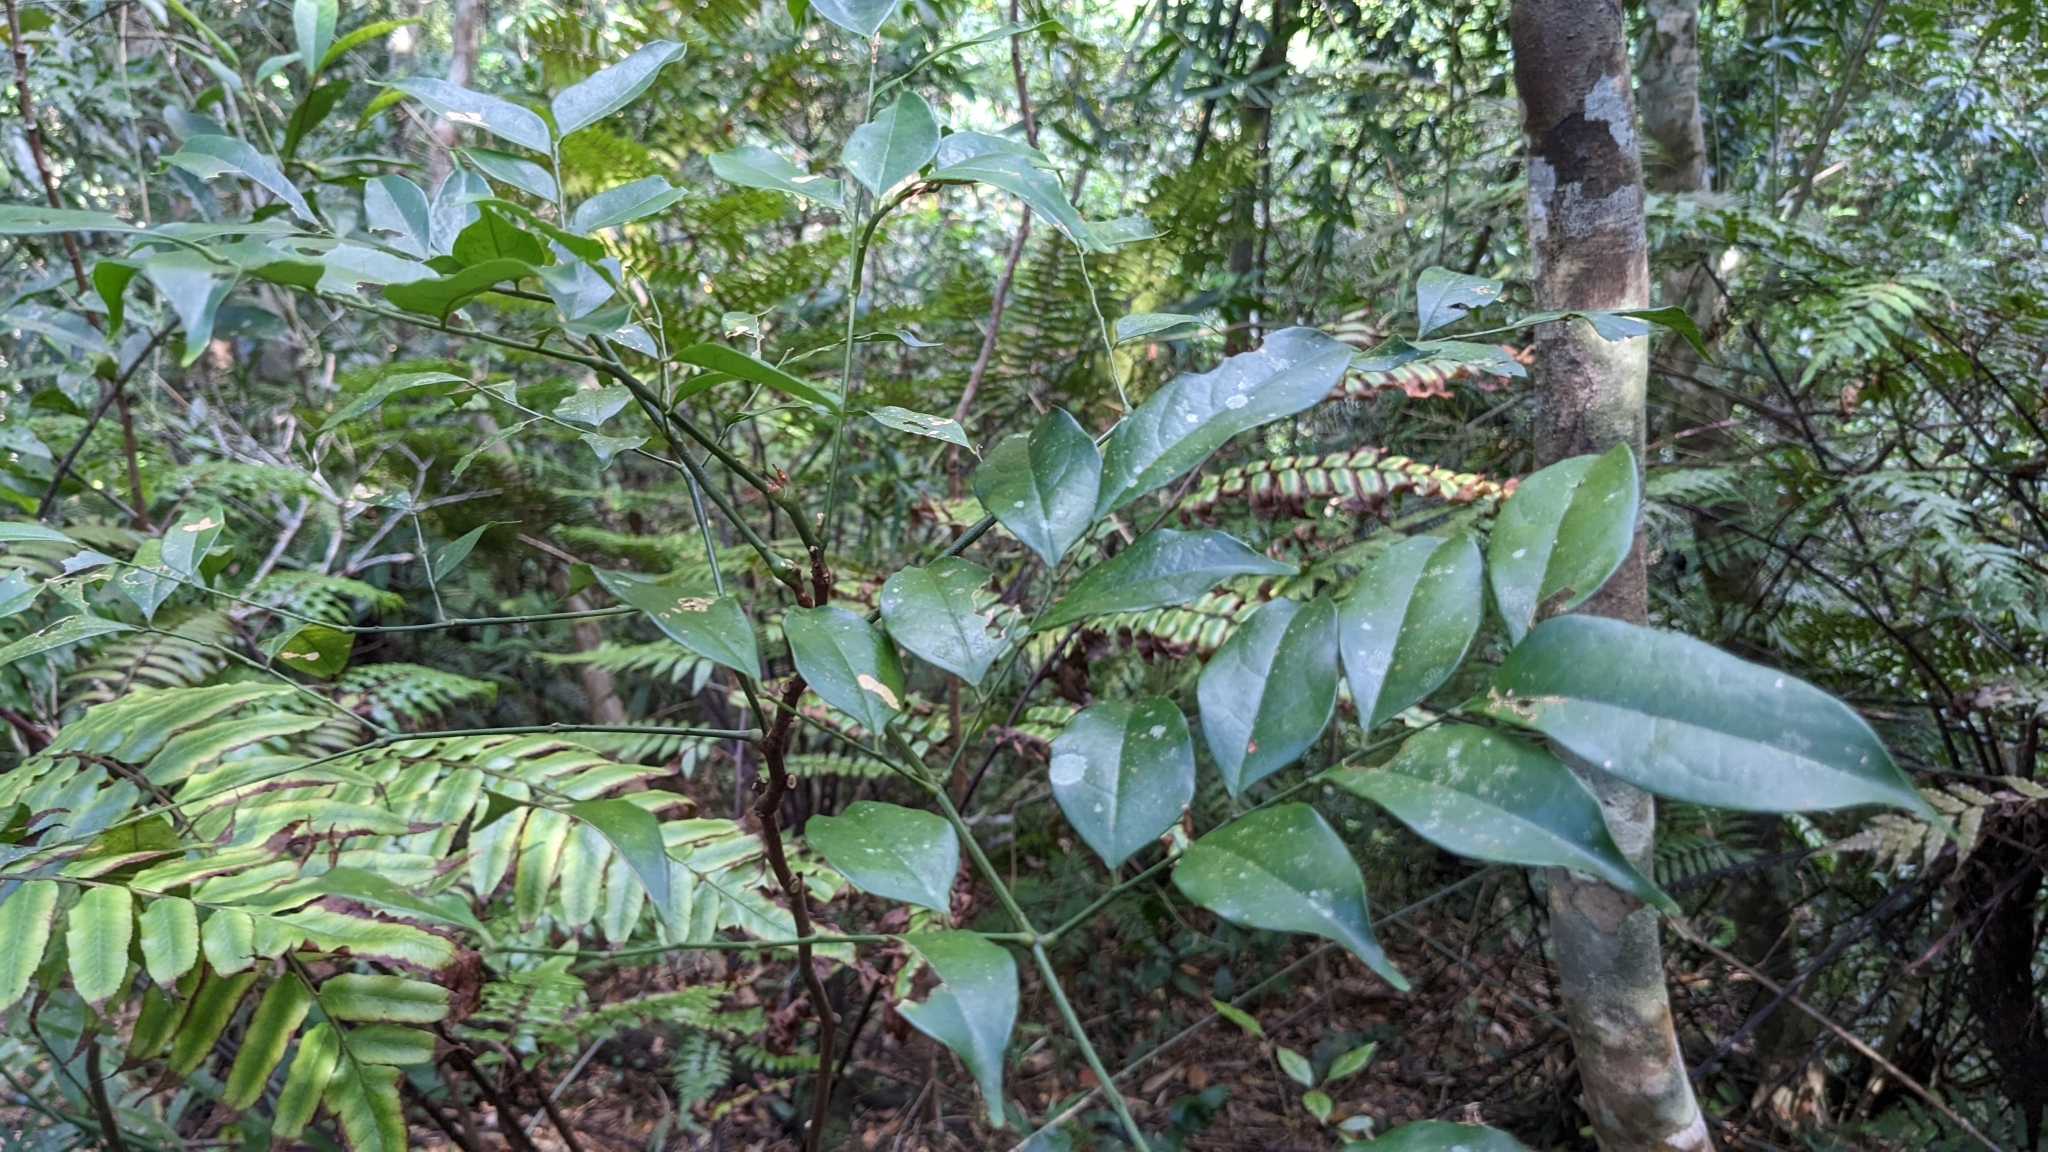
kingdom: Plantae
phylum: Tracheophyta
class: Magnoliopsida
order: Fabales
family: Fabaceae
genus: Archidendron
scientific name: Archidendron lucidum
